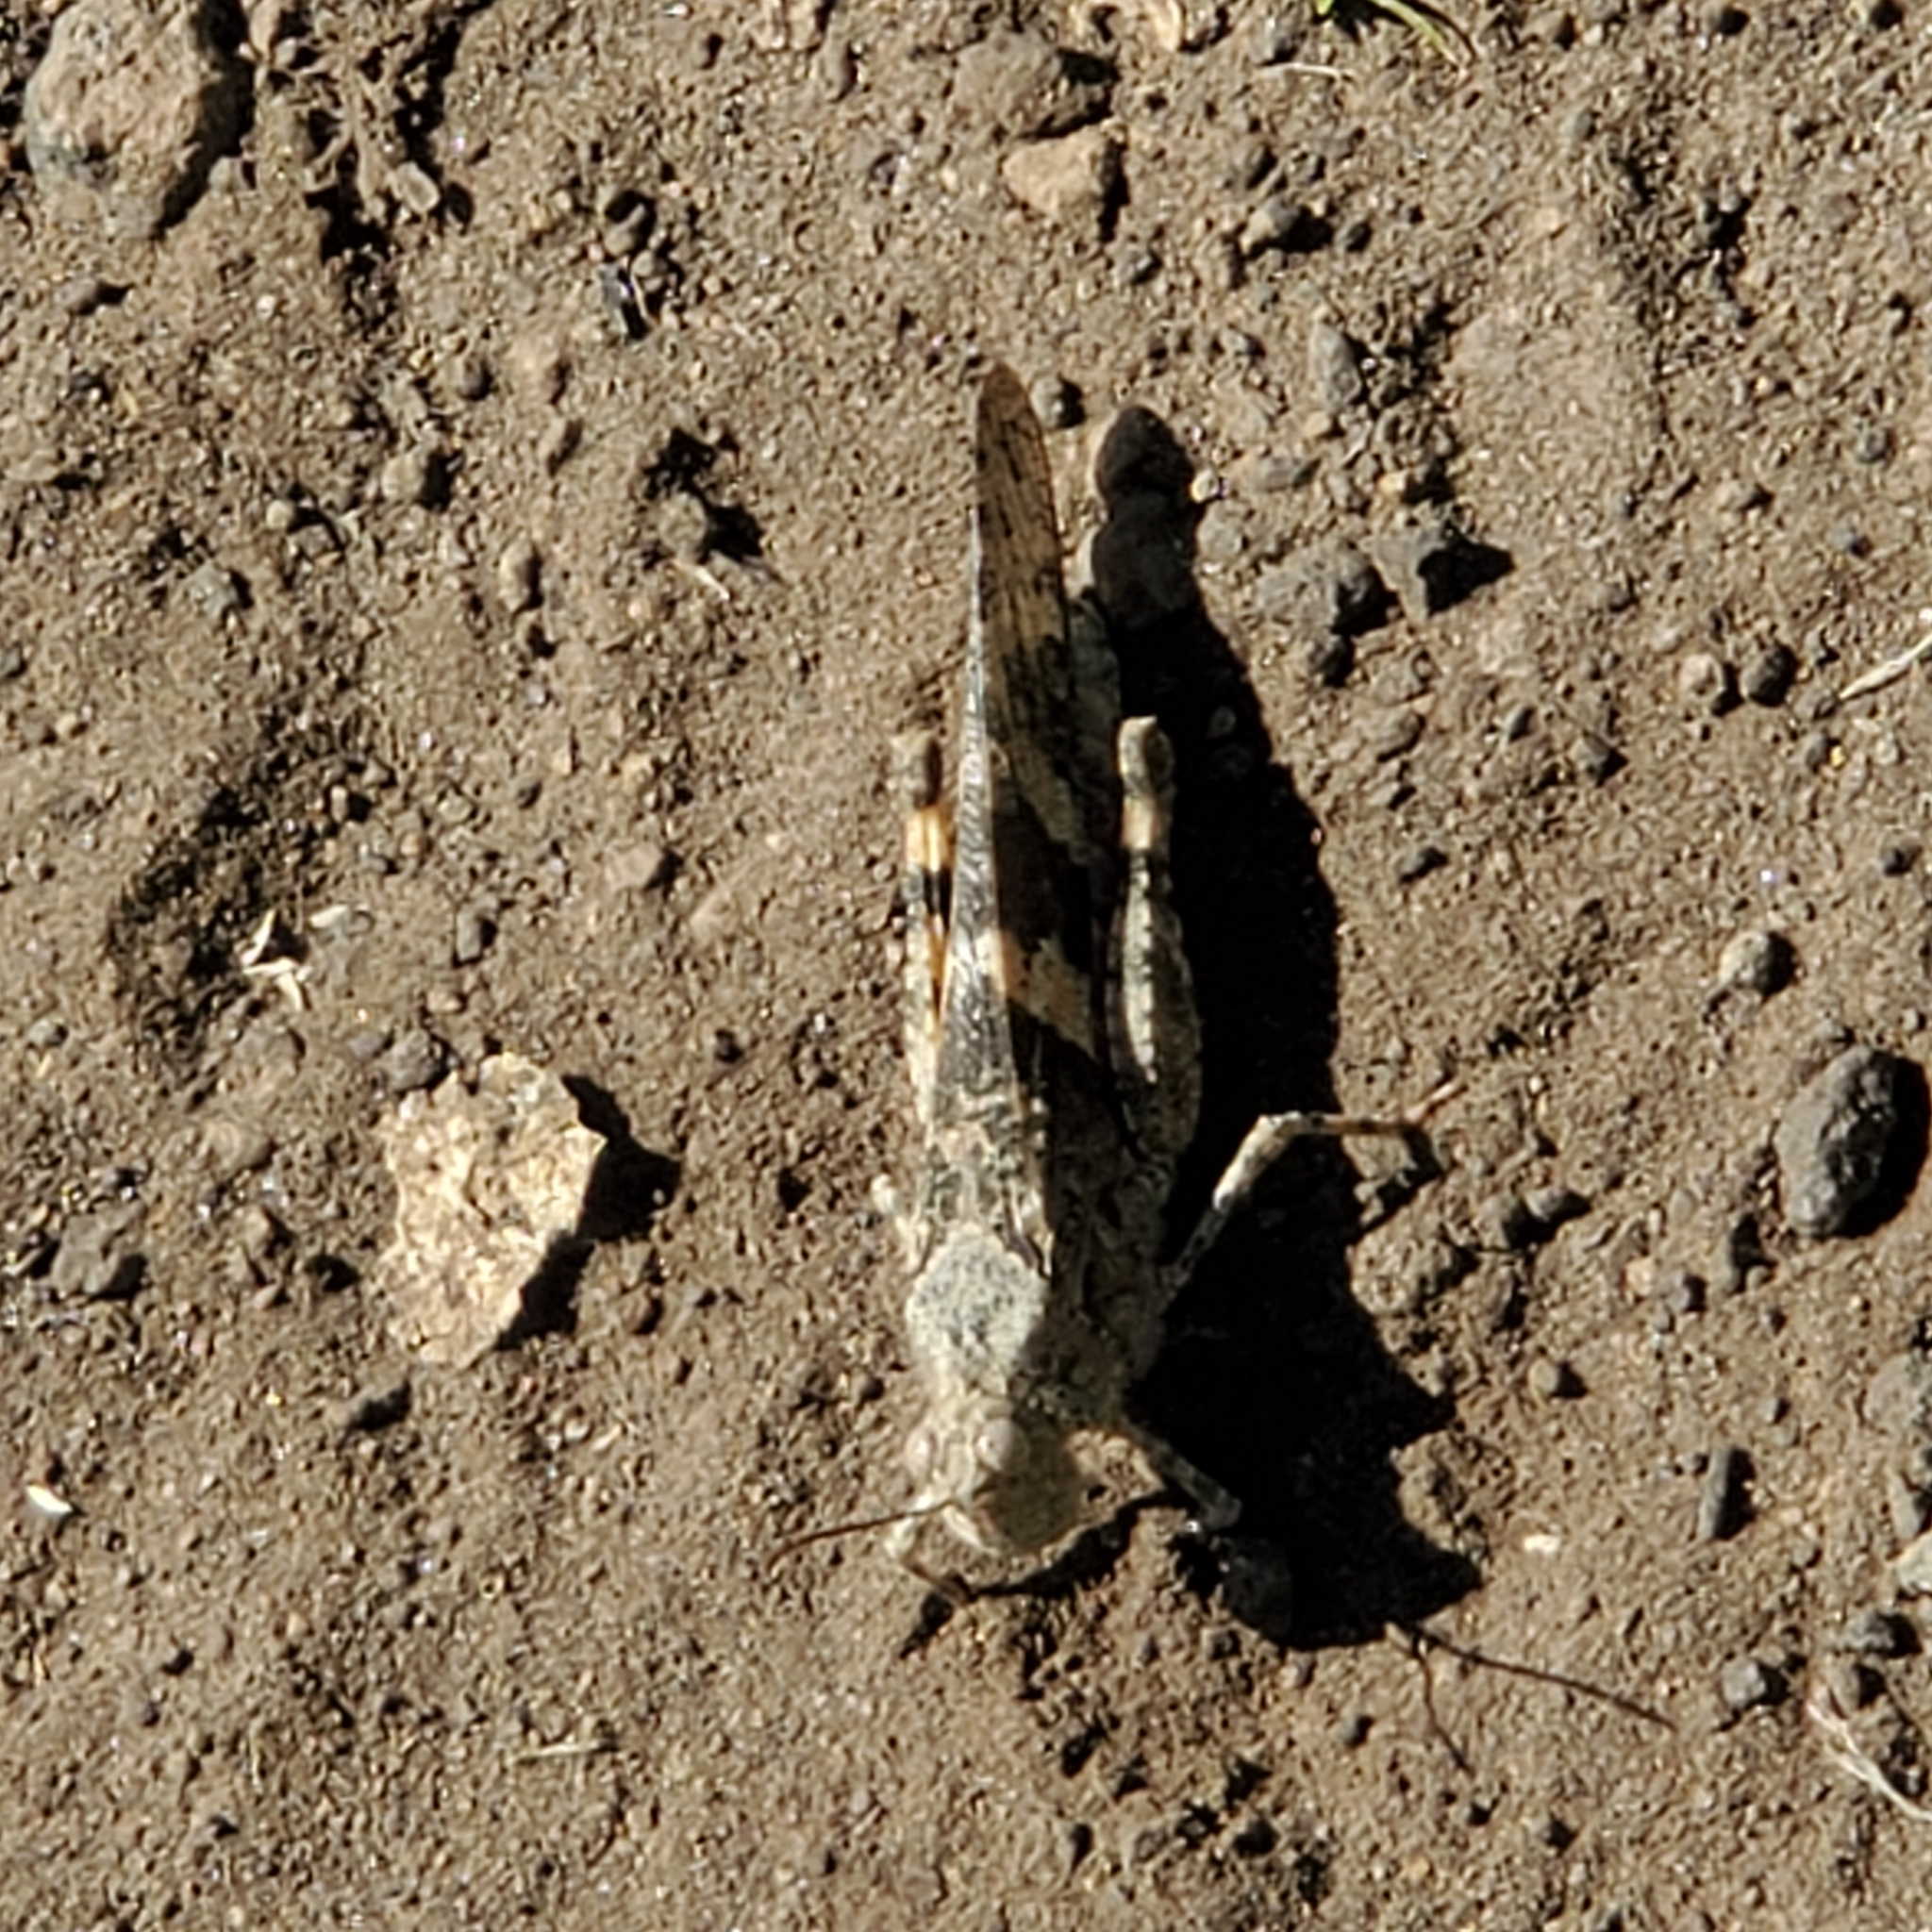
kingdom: Animalia
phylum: Arthropoda
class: Insecta
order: Orthoptera
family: Acrididae
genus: Trimerotropis
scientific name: Trimerotropis pallidipennis
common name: Pallid-winged grasshopper
